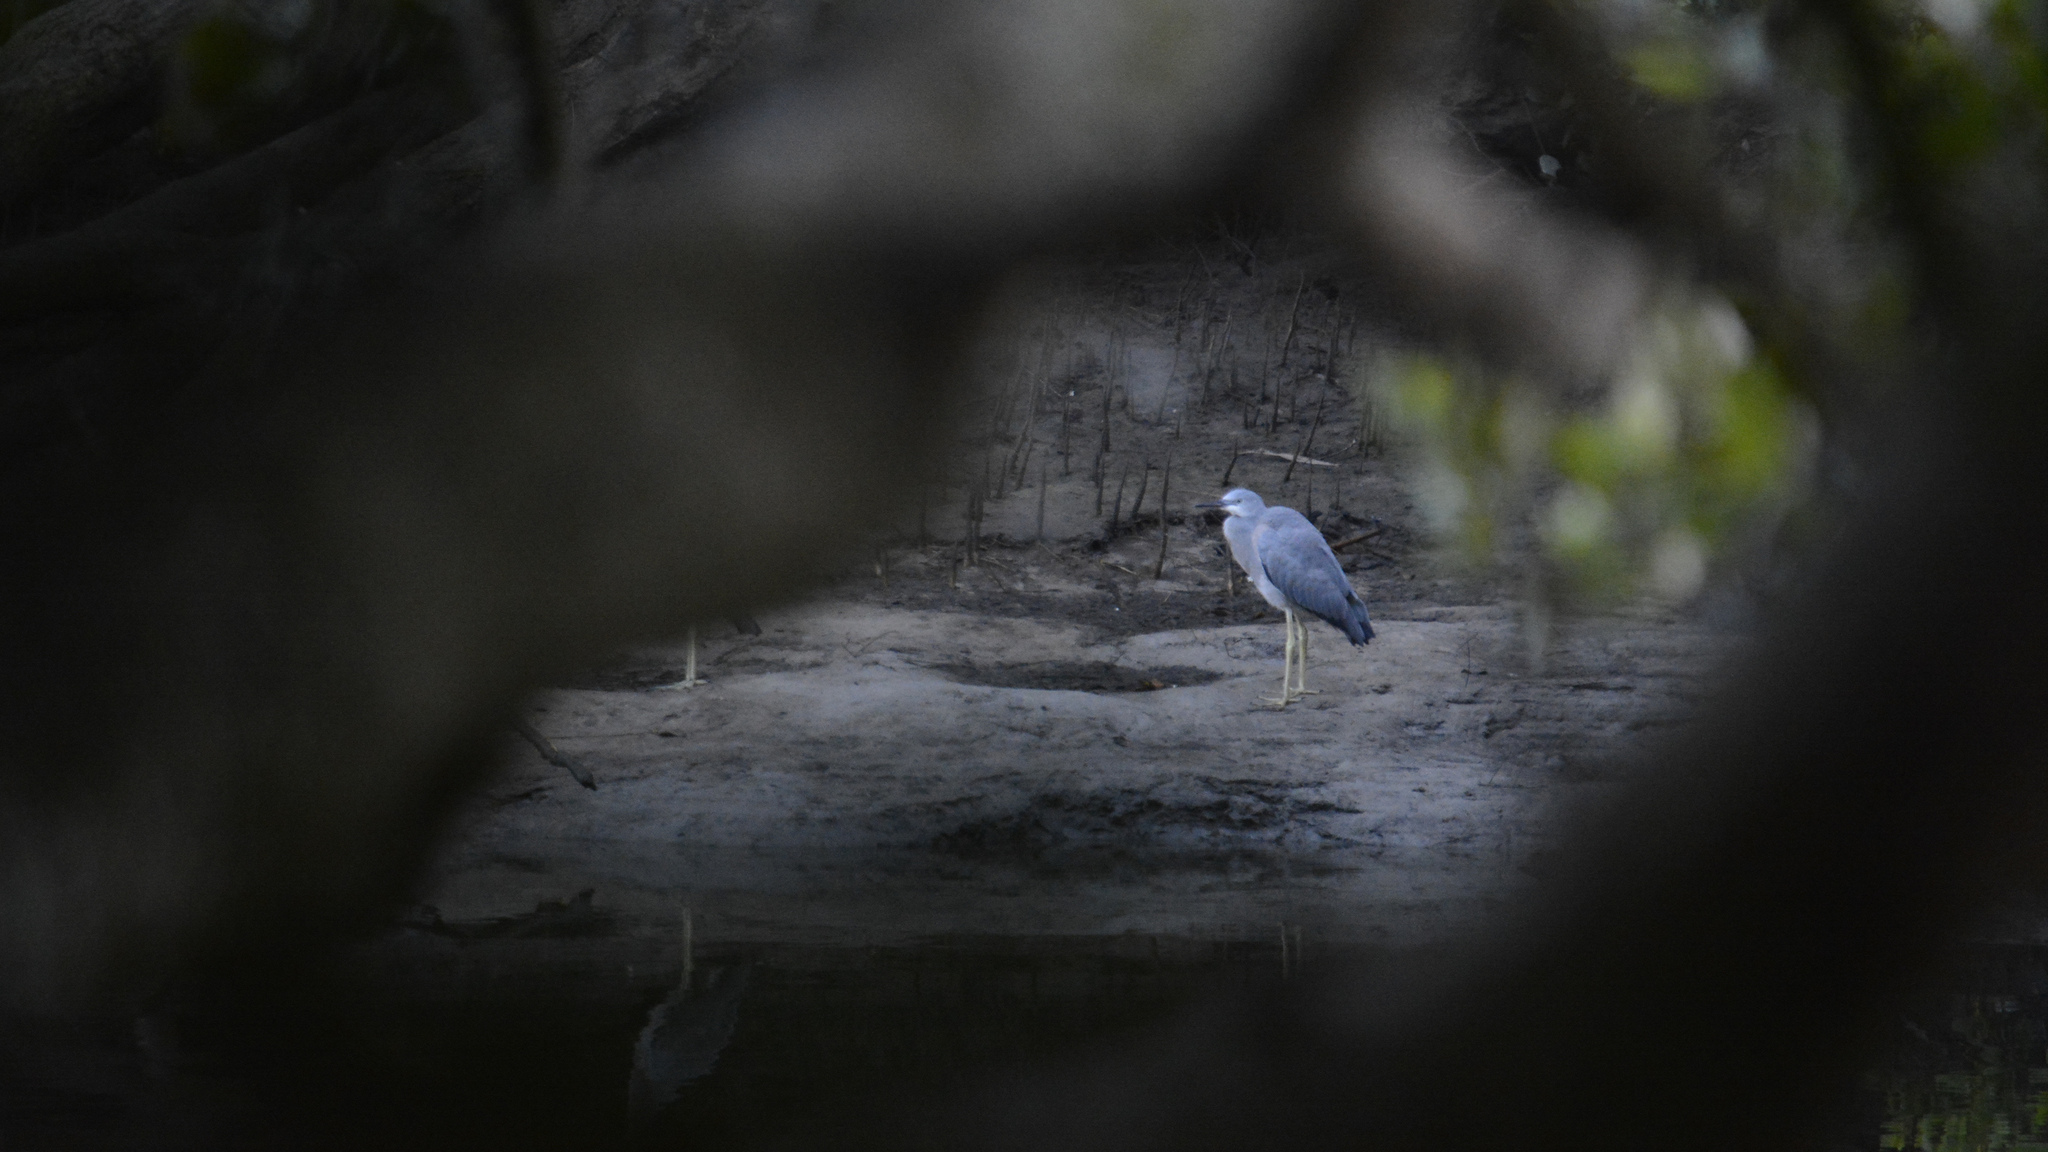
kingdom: Animalia
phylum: Chordata
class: Aves
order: Pelecaniformes
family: Ardeidae
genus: Egretta
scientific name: Egretta novaehollandiae
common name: White-faced heron
